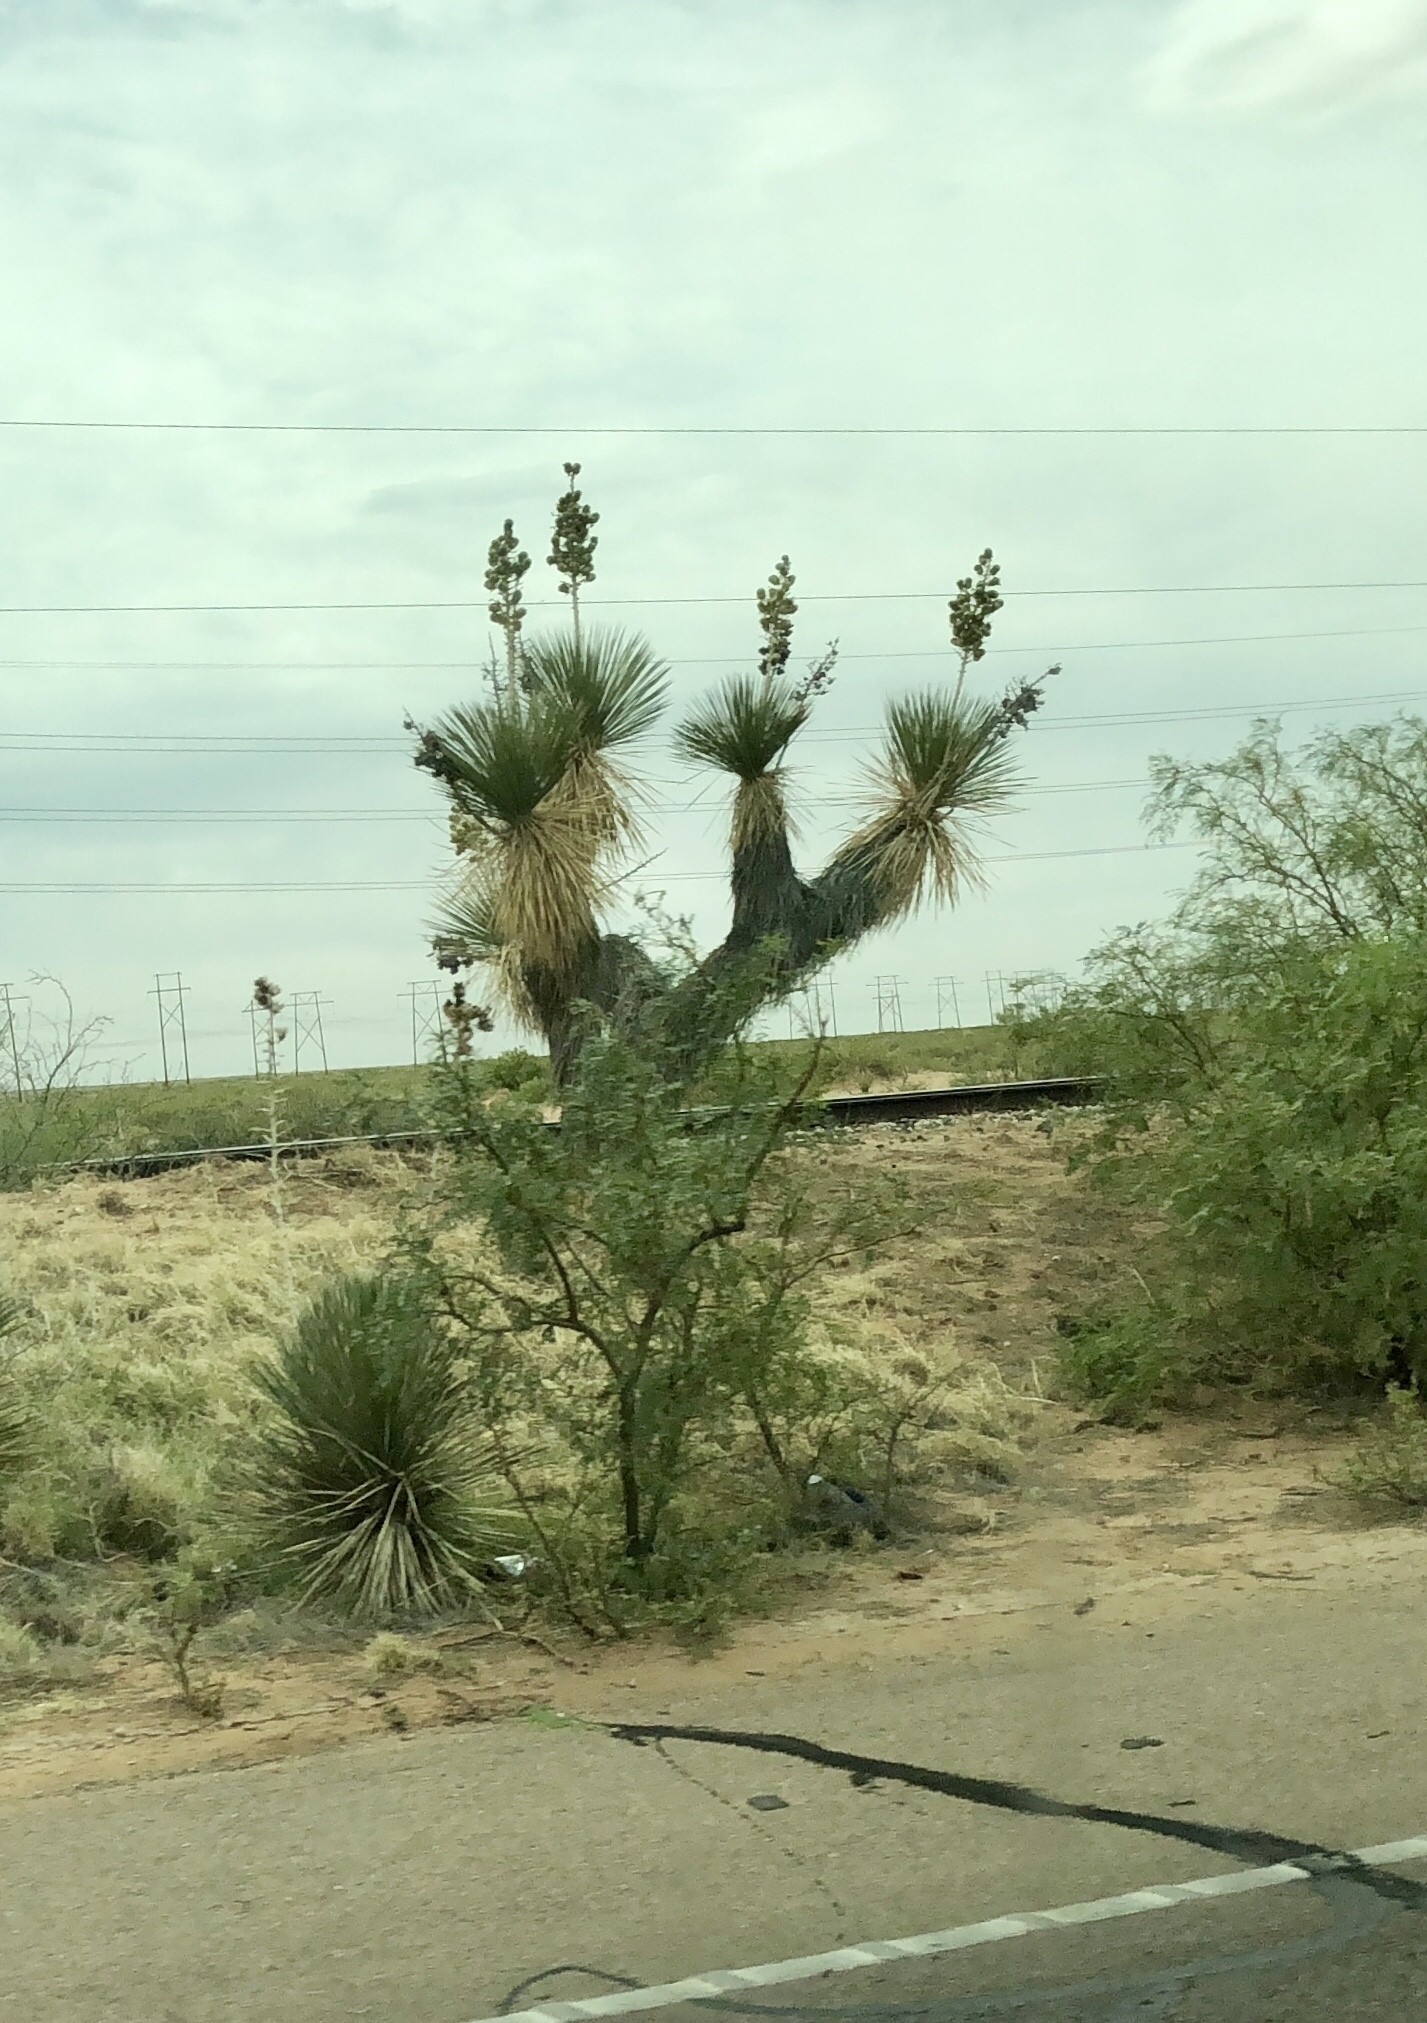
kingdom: Plantae
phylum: Tracheophyta
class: Liliopsida
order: Asparagales
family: Asparagaceae
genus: Yucca
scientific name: Yucca elata
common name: Palmella
